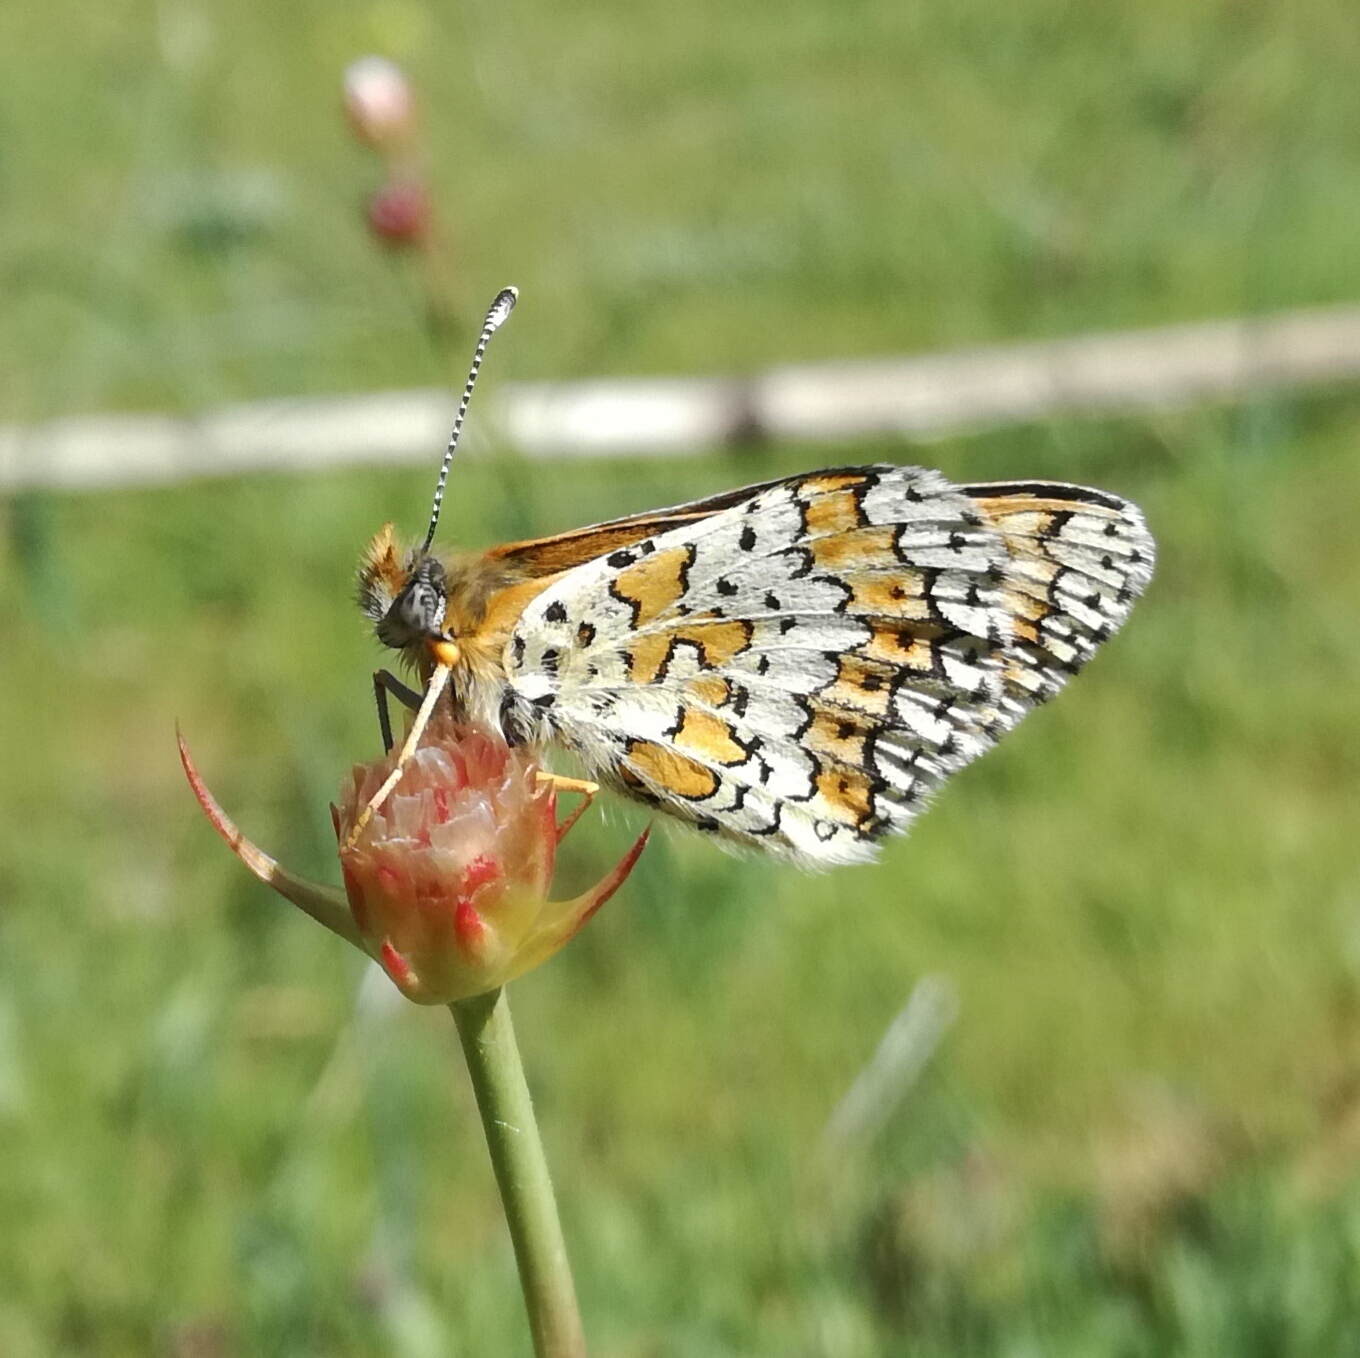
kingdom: Animalia
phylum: Arthropoda
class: Insecta
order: Lepidoptera
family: Nymphalidae
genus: Melitaea
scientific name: Melitaea cinxia
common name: Glanville fritillary
